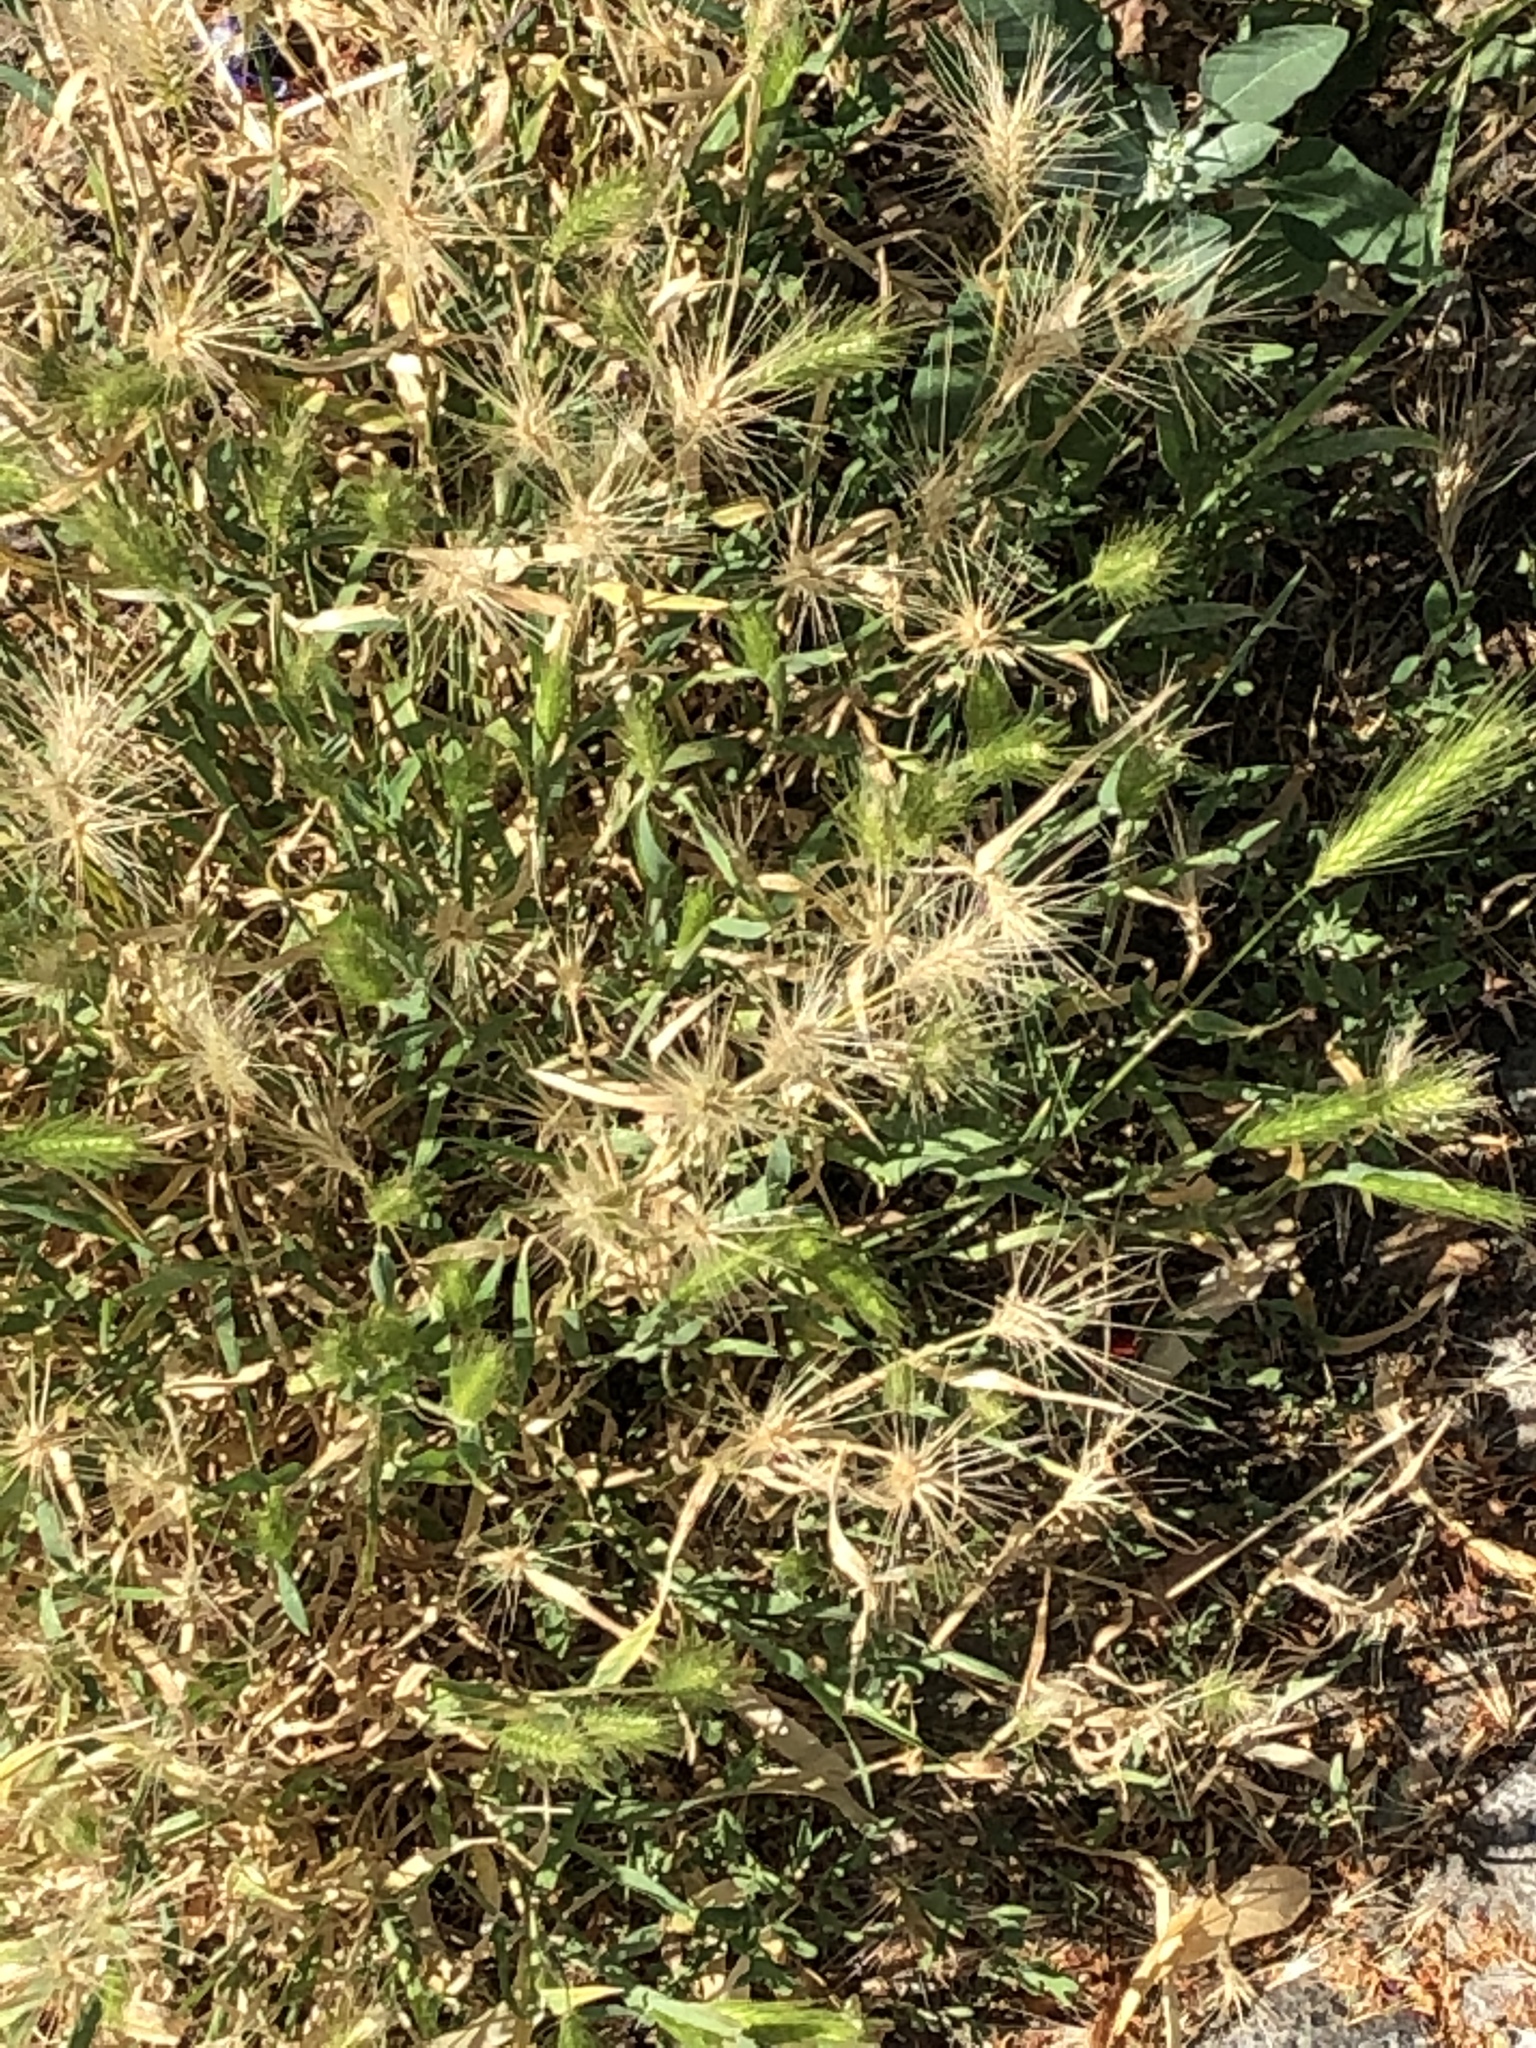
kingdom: Plantae
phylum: Tracheophyta
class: Liliopsida
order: Poales
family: Poaceae
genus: Hordeum
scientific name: Hordeum murinum
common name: Wall barley
